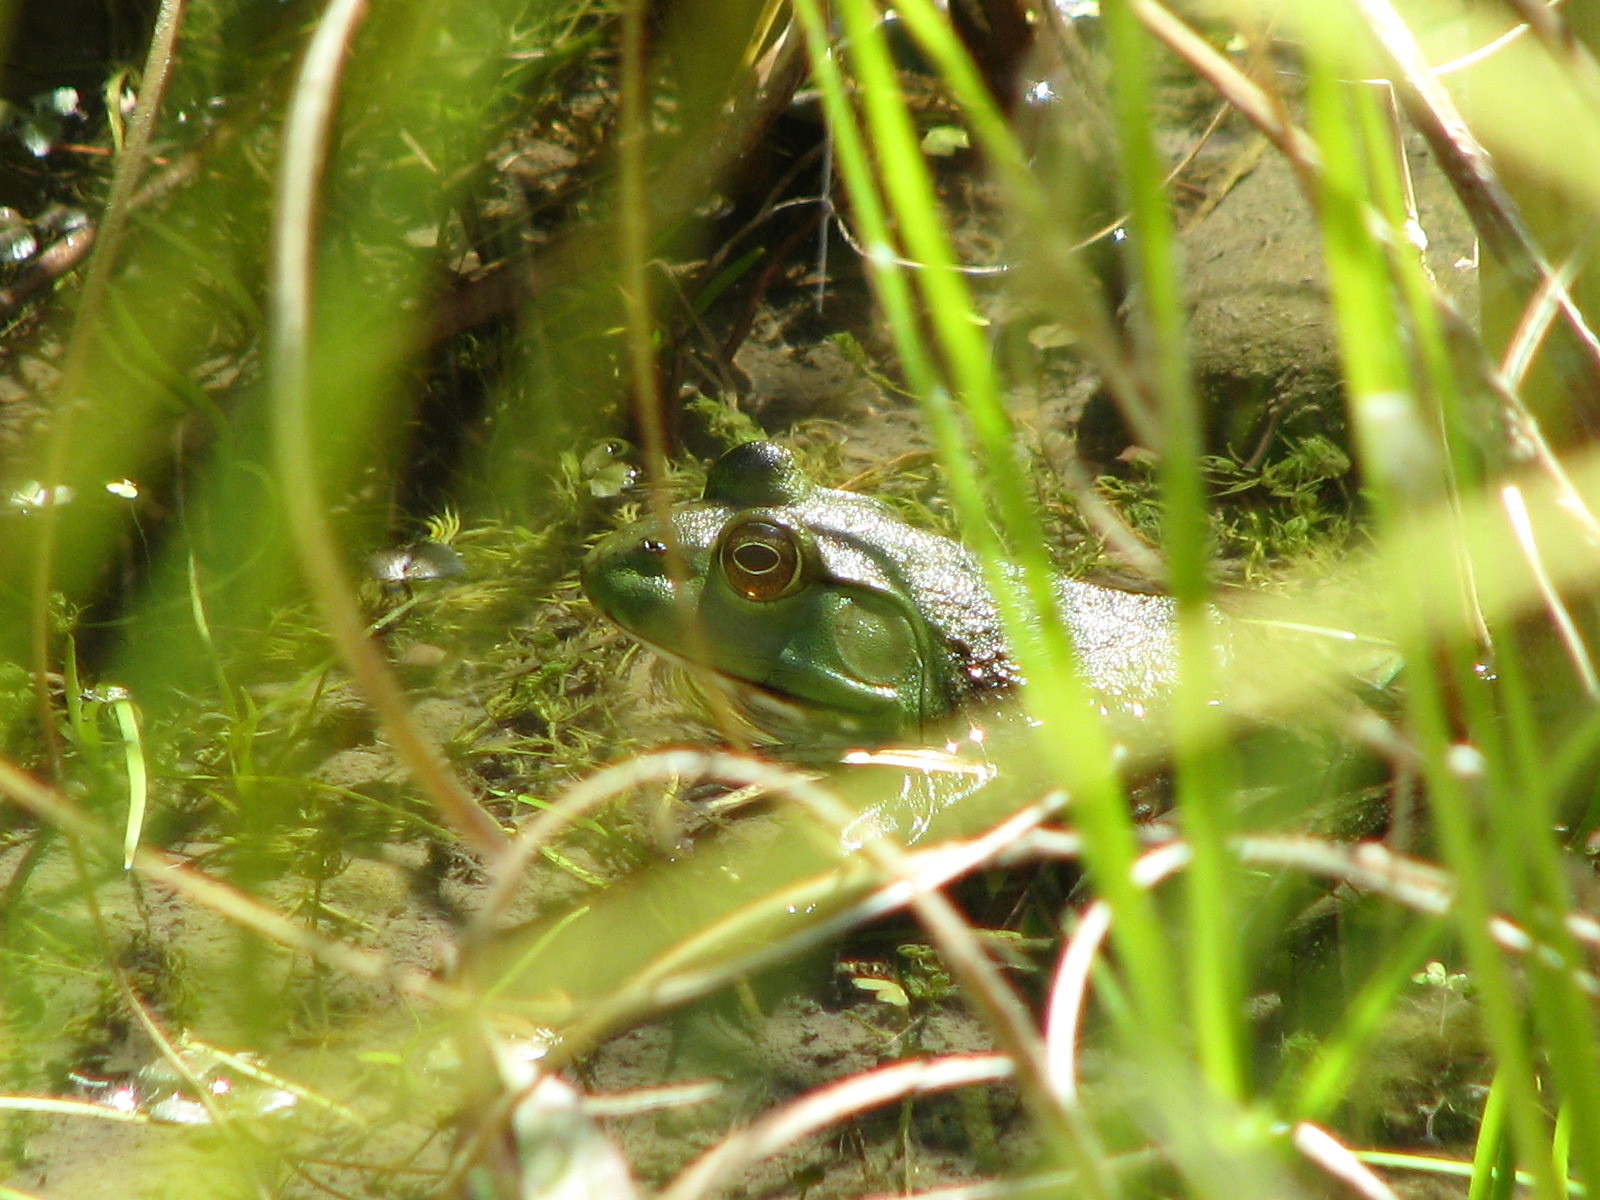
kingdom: Animalia
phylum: Chordata
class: Amphibia
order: Anura
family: Ranidae
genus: Lithobates
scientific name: Lithobates catesbeianus
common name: American bullfrog
